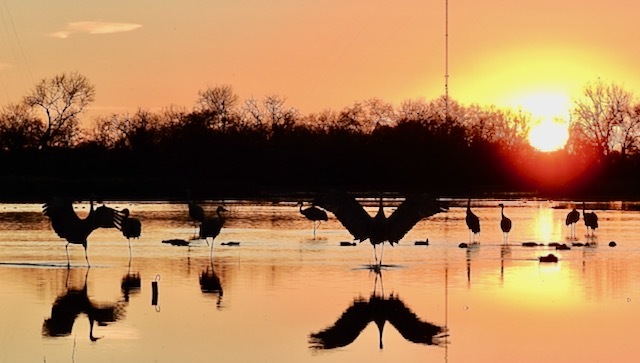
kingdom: Animalia
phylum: Chordata
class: Aves
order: Gruiformes
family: Gruidae
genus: Grus
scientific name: Grus canadensis
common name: Sandhill crane
